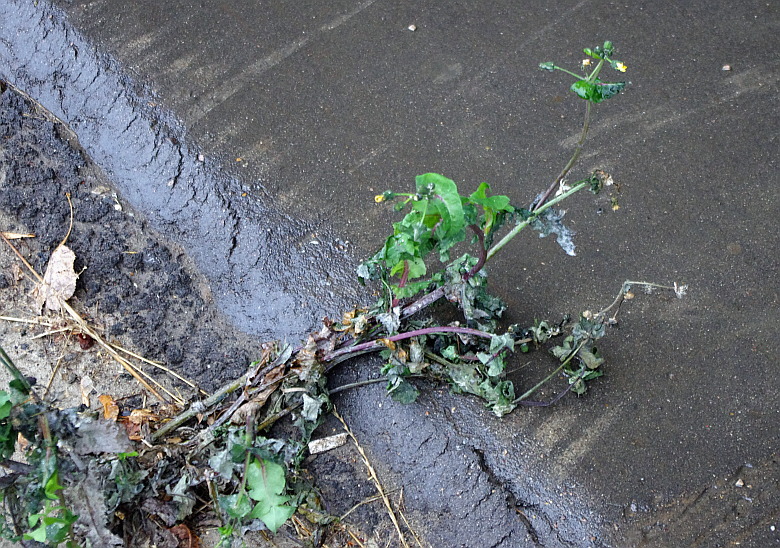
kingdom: Plantae
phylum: Tracheophyta
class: Magnoliopsida
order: Asterales
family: Asteraceae
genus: Sonchus
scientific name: Sonchus oleraceus
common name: Common sowthistle
